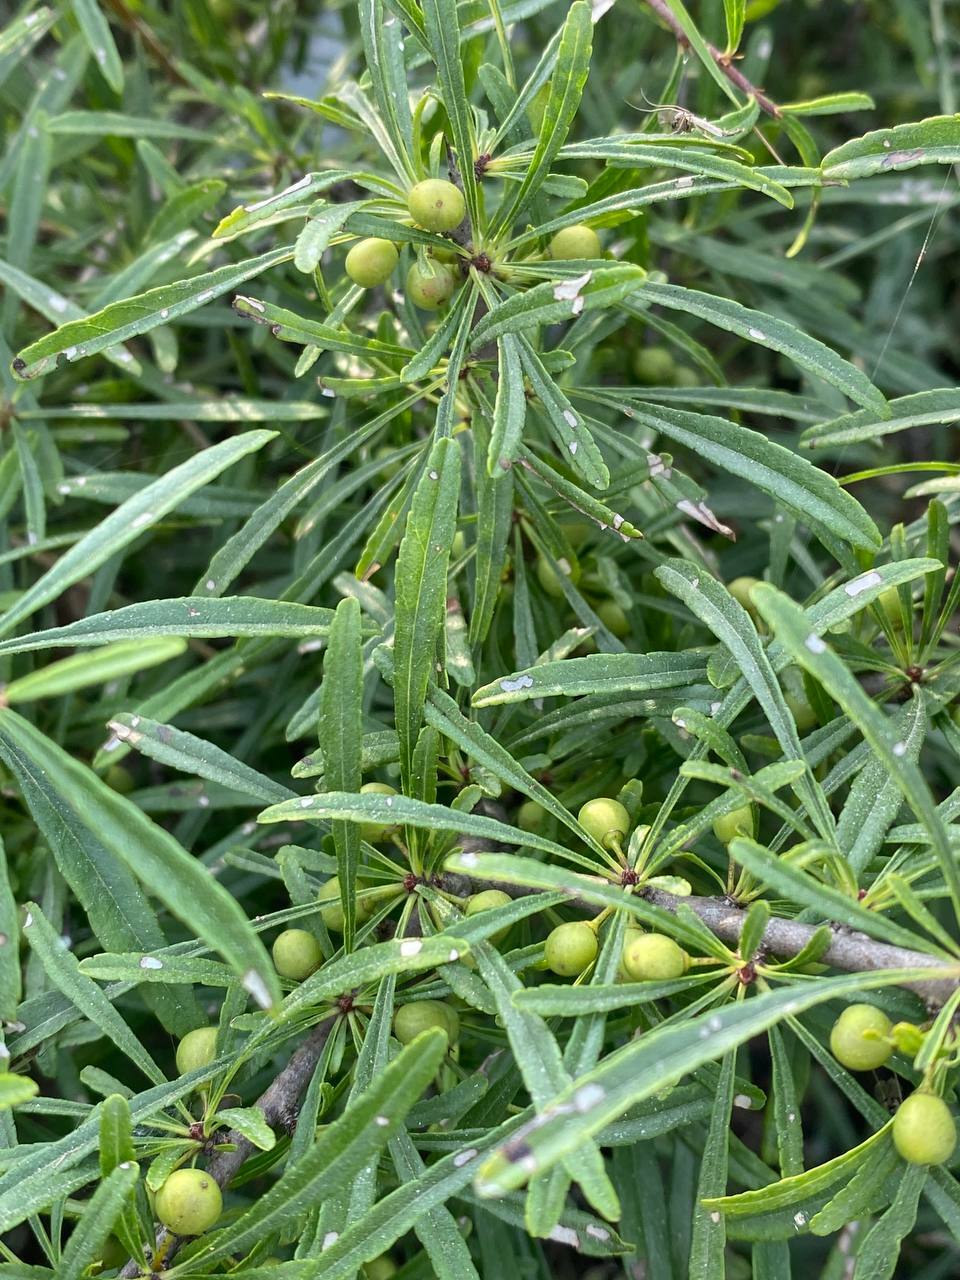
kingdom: Plantae
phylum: Tracheophyta
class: Magnoliopsida
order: Rosales
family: Rhamnaceae
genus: Rhamnus
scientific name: Rhamnus erythroxyloides
